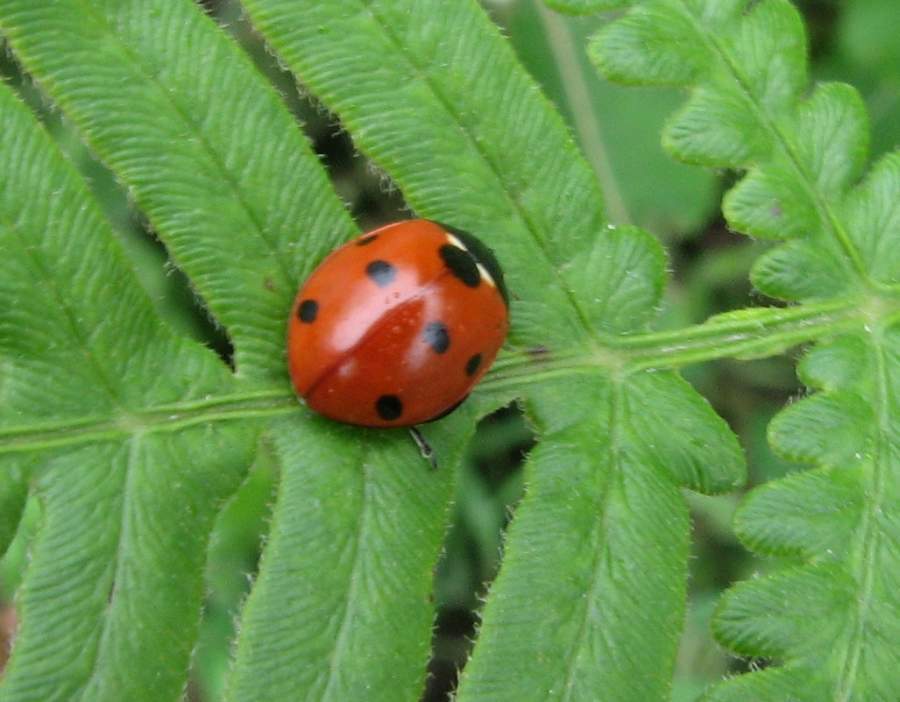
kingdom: Animalia
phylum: Arthropoda
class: Insecta
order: Coleoptera
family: Coccinellidae
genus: Coccinella
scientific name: Coccinella septempunctata
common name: Sevenspotted lady beetle
